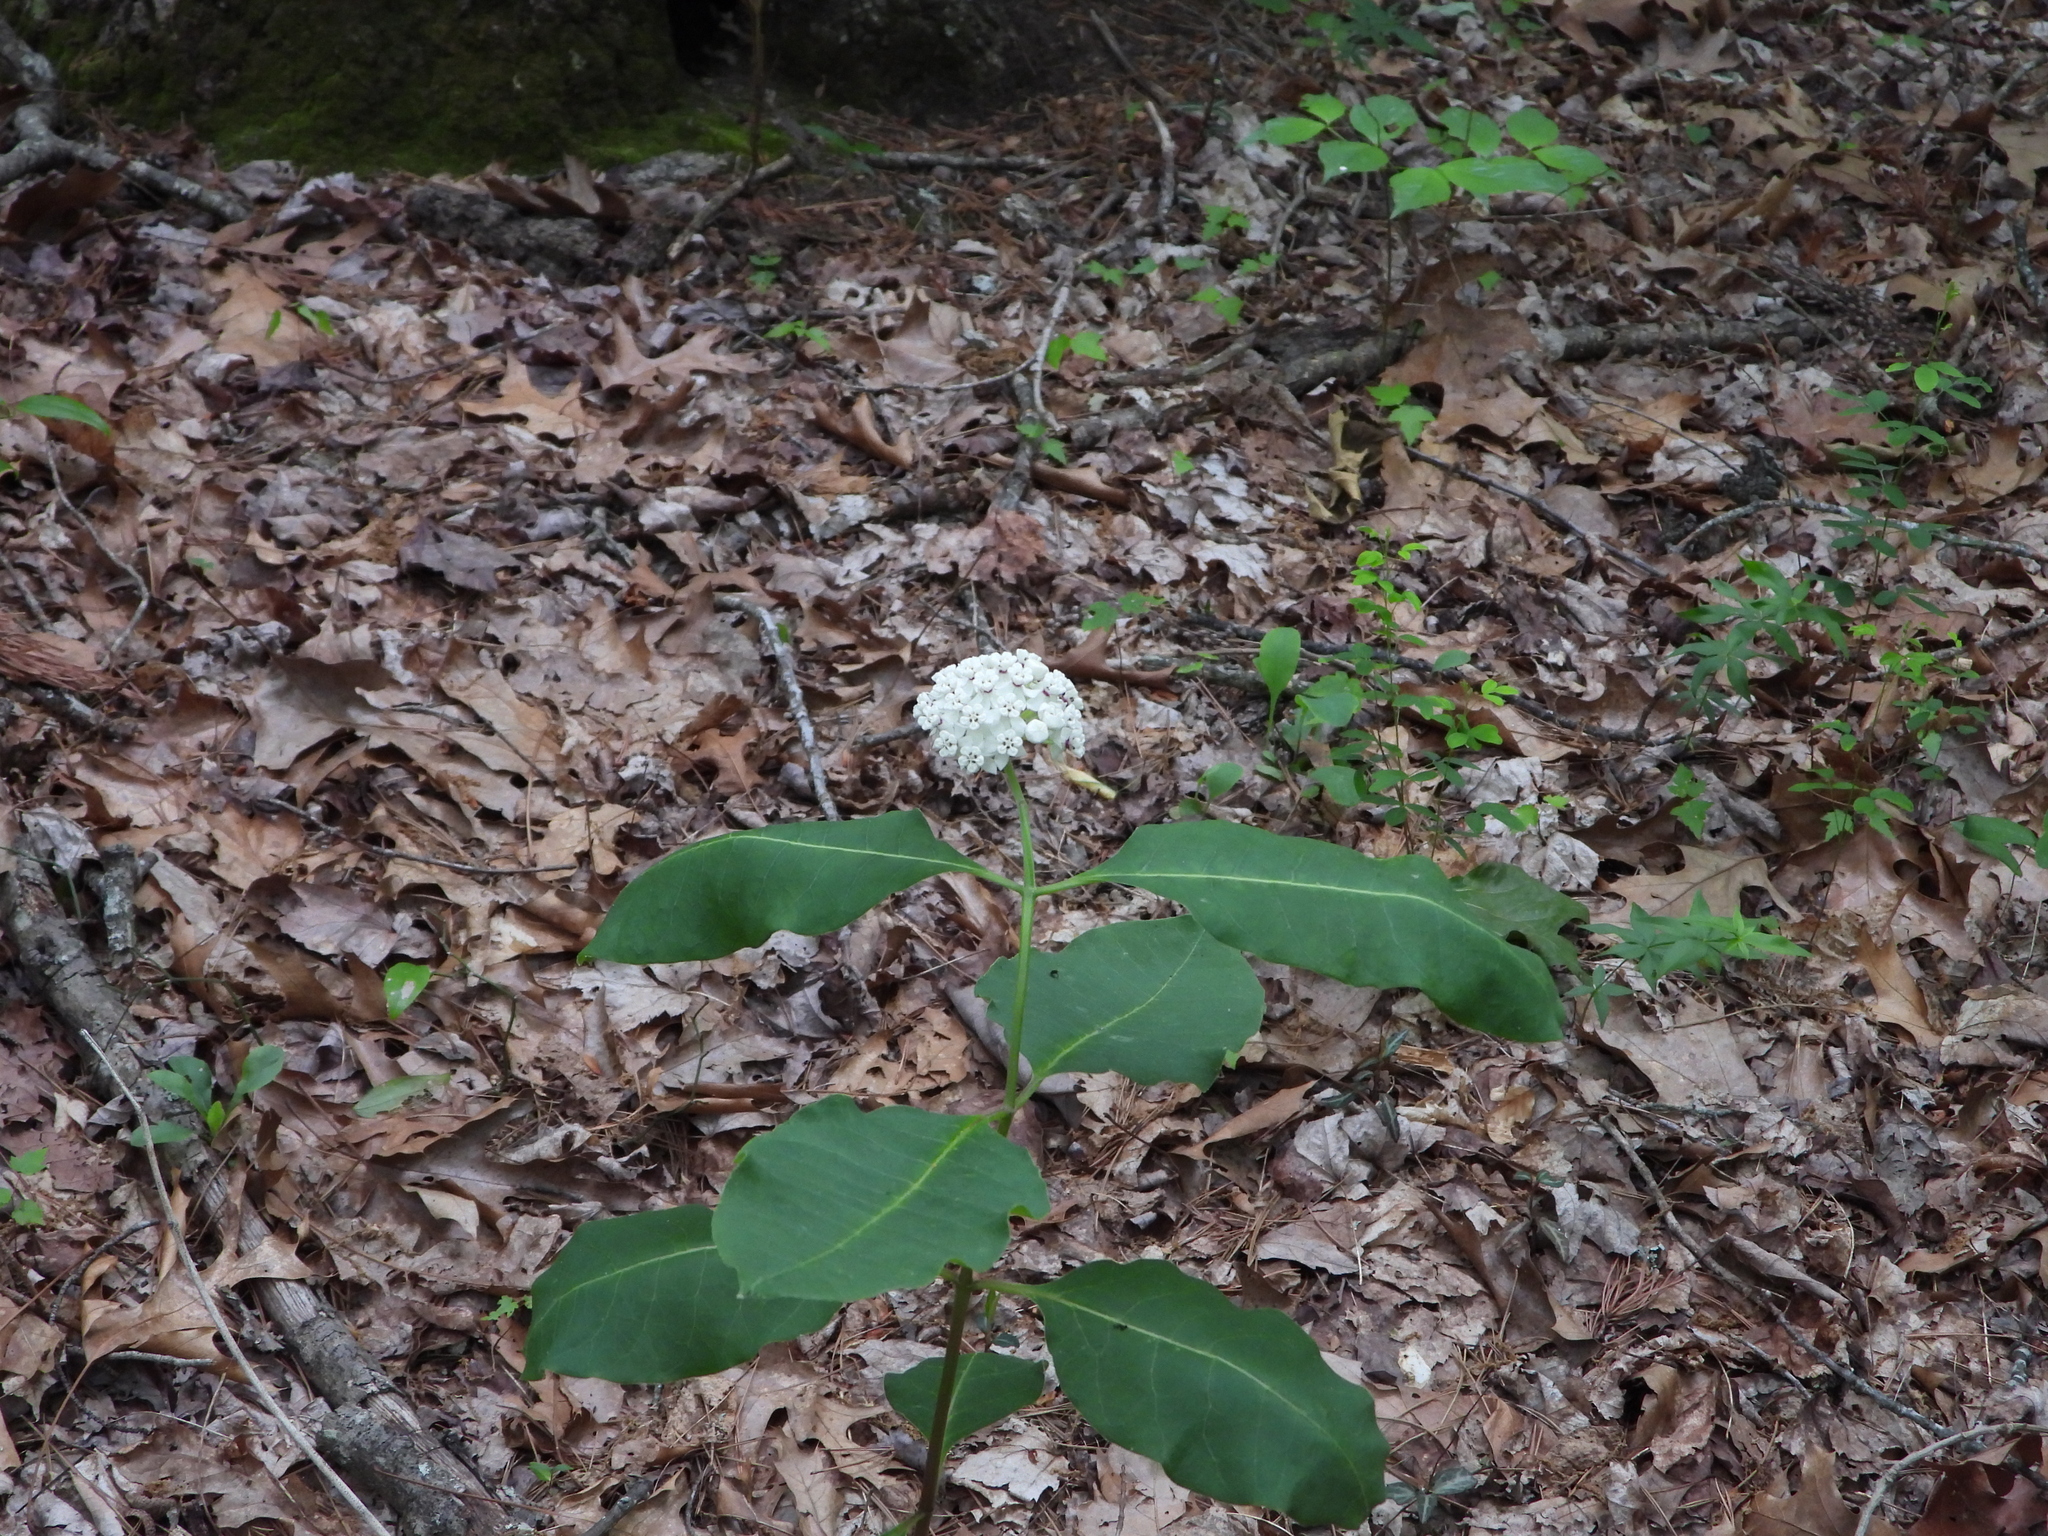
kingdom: Plantae
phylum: Tracheophyta
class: Magnoliopsida
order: Gentianales
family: Apocynaceae
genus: Asclepias
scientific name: Asclepias variegata
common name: Variegated milkweed
